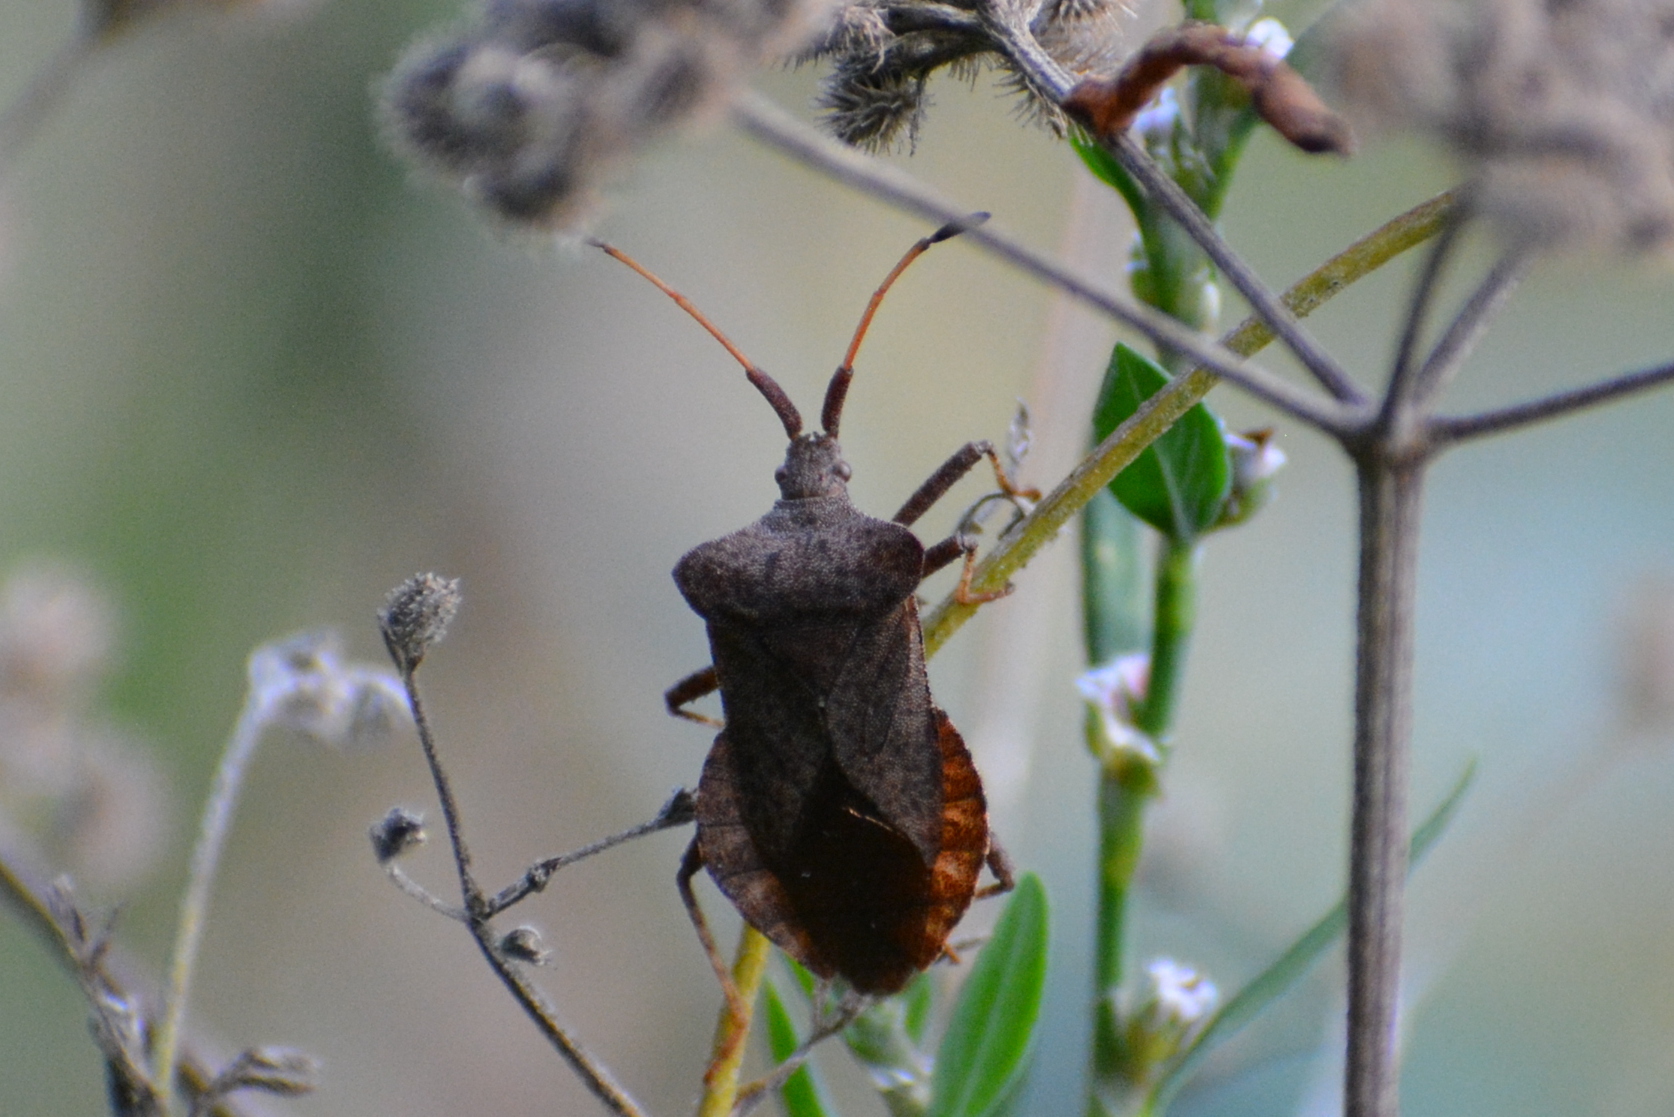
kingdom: Animalia
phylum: Arthropoda
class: Insecta
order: Hemiptera
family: Coreidae
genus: Coreus
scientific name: Coreus marginatus
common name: Dock bug
